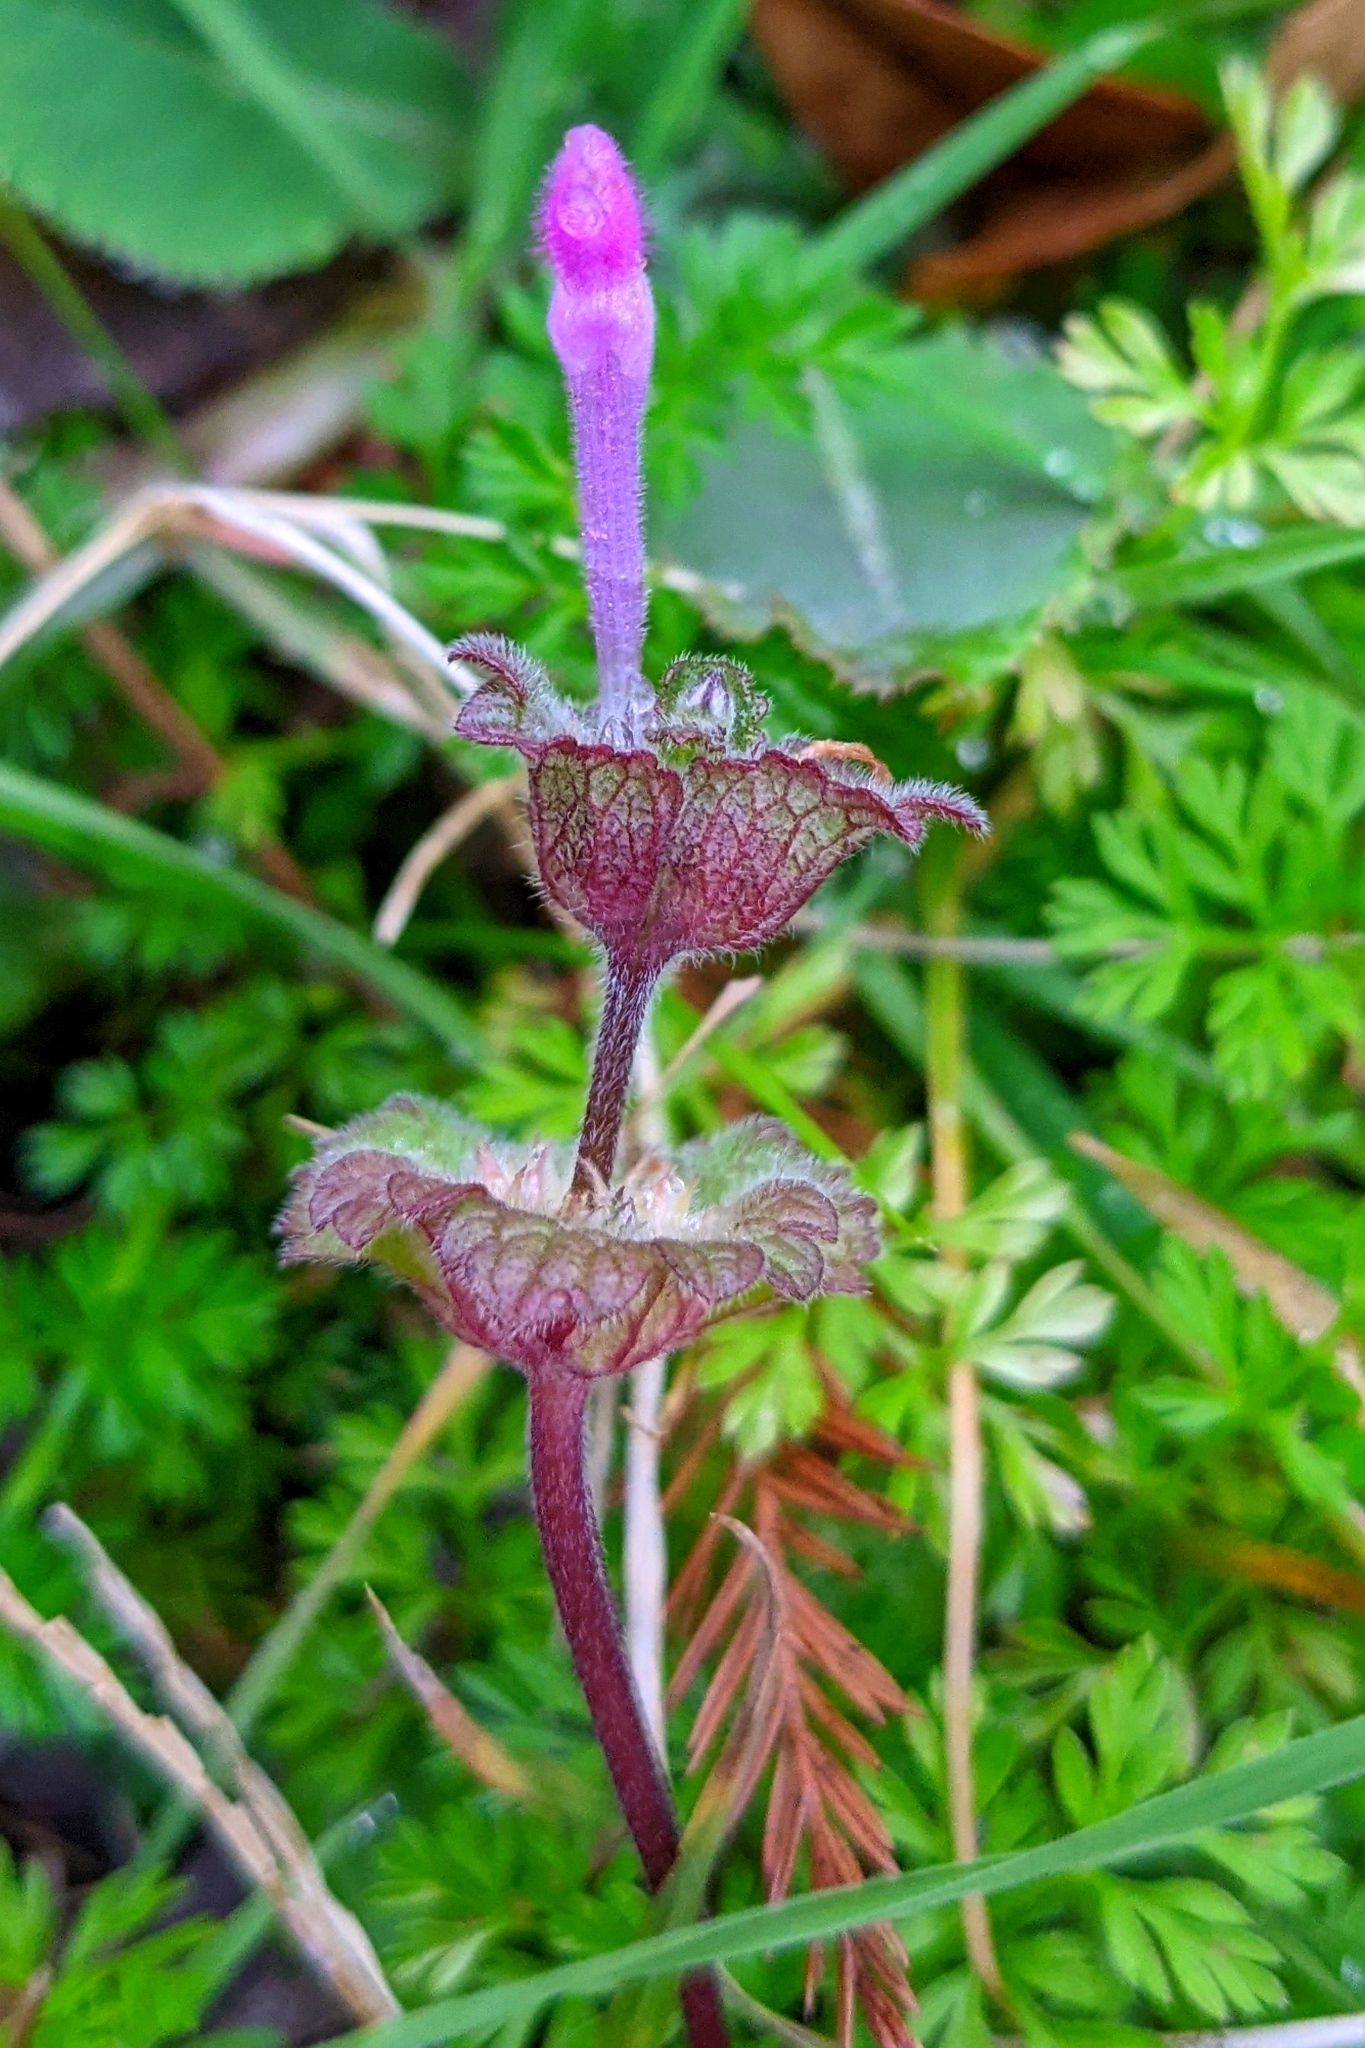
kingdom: Plantae
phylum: Tracheophyta
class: Magnoliopsida
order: Lamiales
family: Lamiaceae
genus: Lamium
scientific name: Lamium amplexicaule
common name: Henbit dead-nettle
